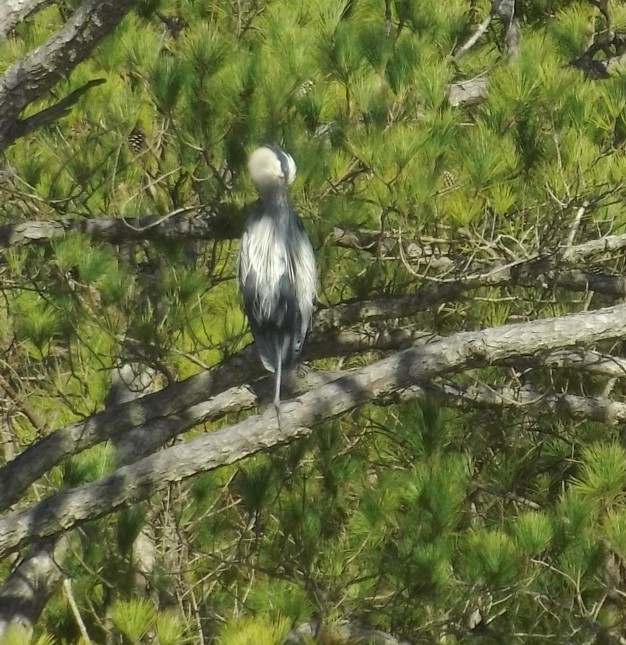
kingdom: Animalia
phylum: Chordata
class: Aves
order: Pelecaniformes
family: Ardeidae
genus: Ardea
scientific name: Ardea herodias
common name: Great blue heron
